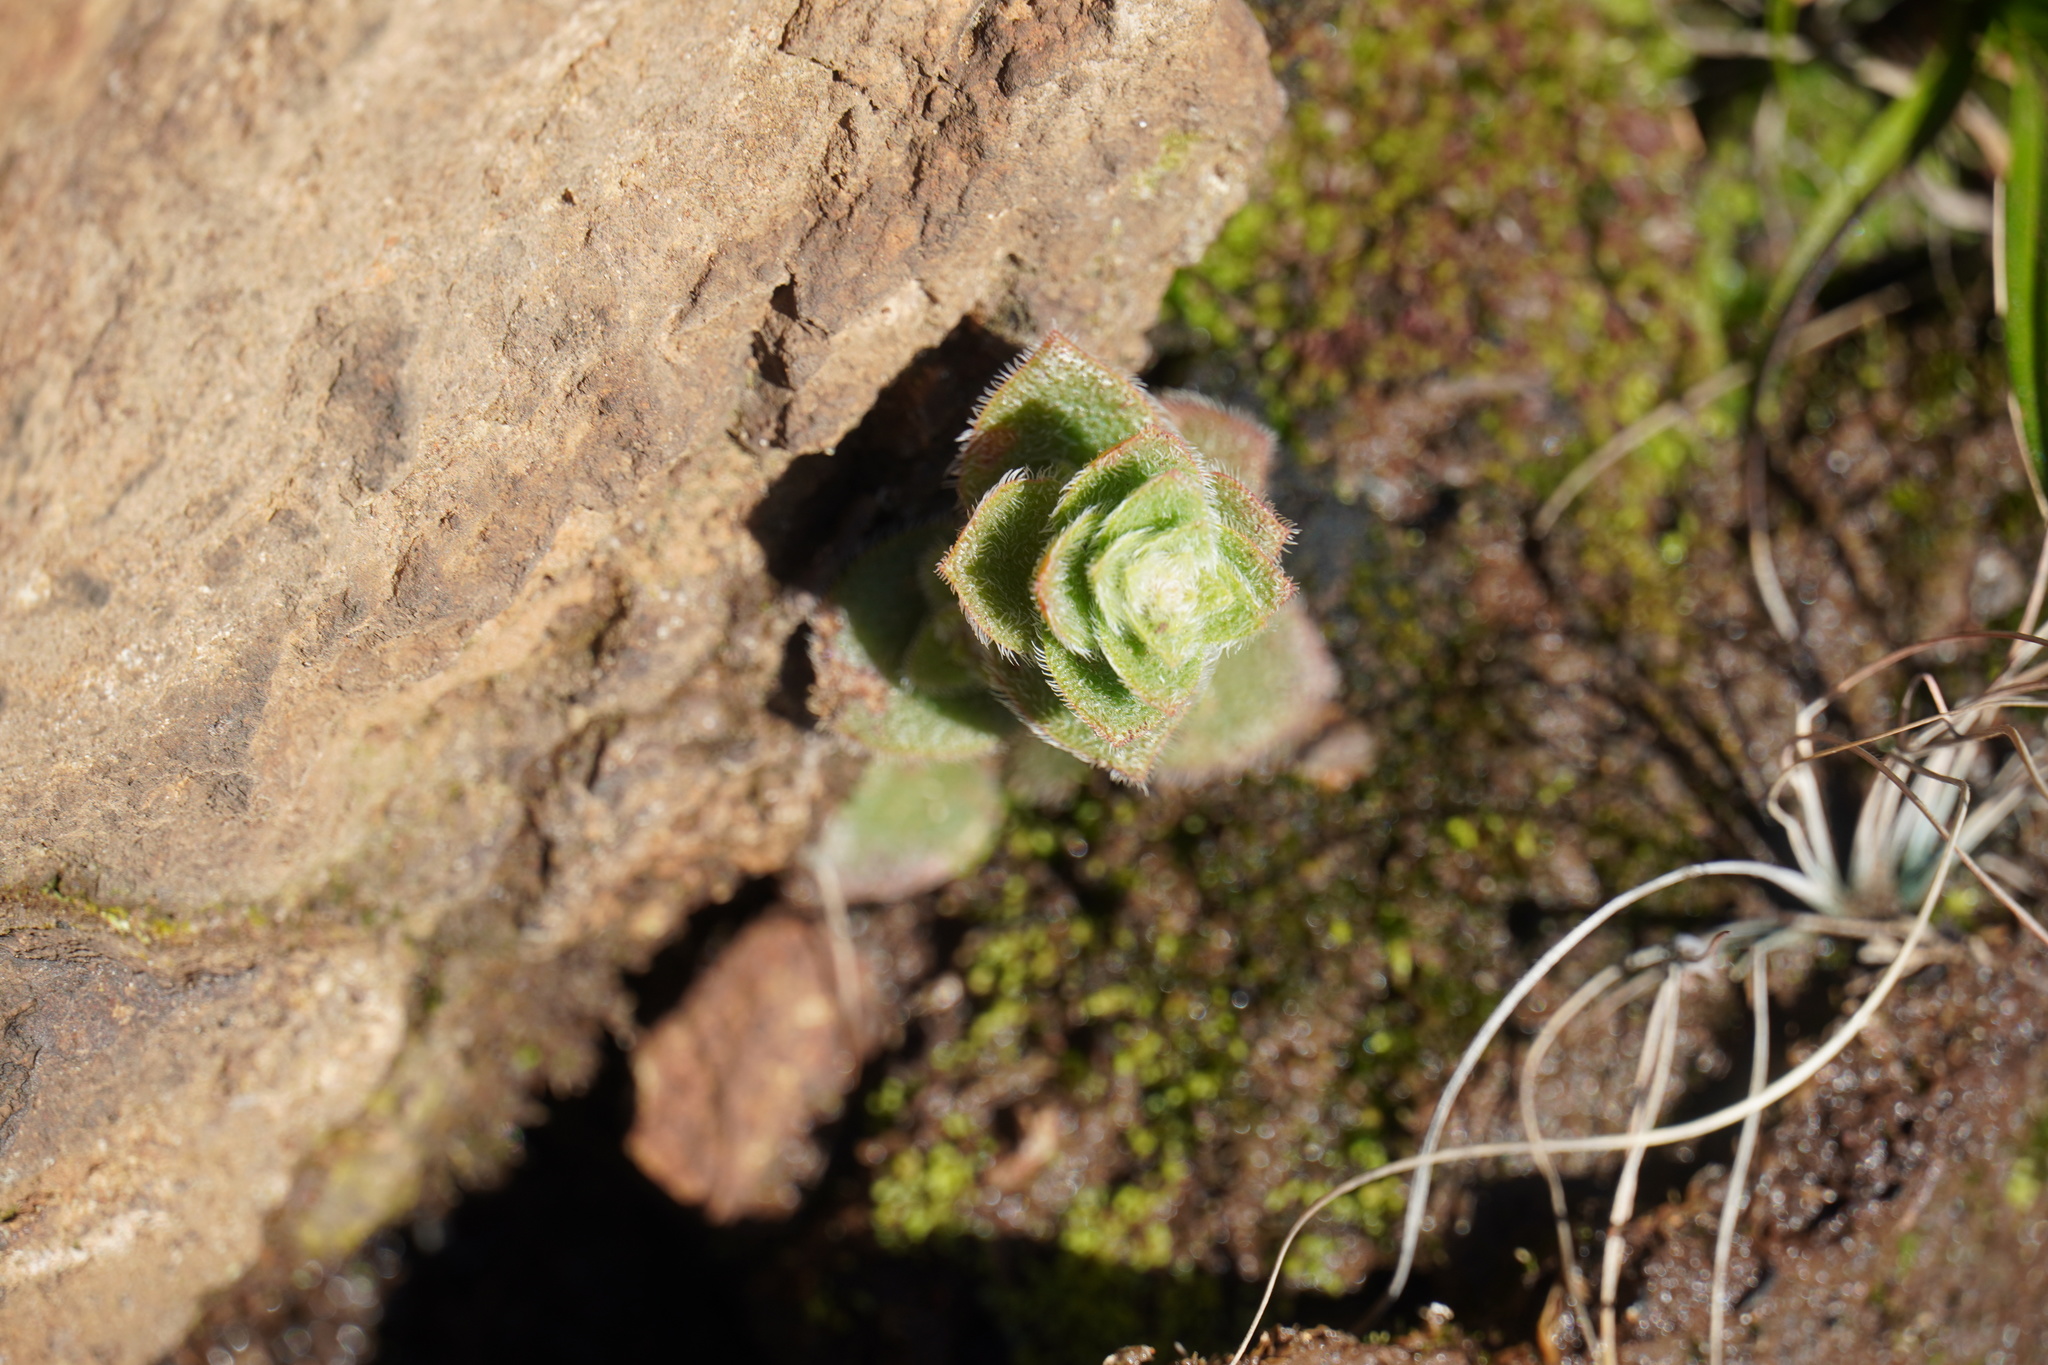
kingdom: Plantae
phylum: Tracheophyta
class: Magnoliopsida
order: Saxifragales
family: Crassulaceae
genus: Crassula
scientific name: Crassula setulosa
